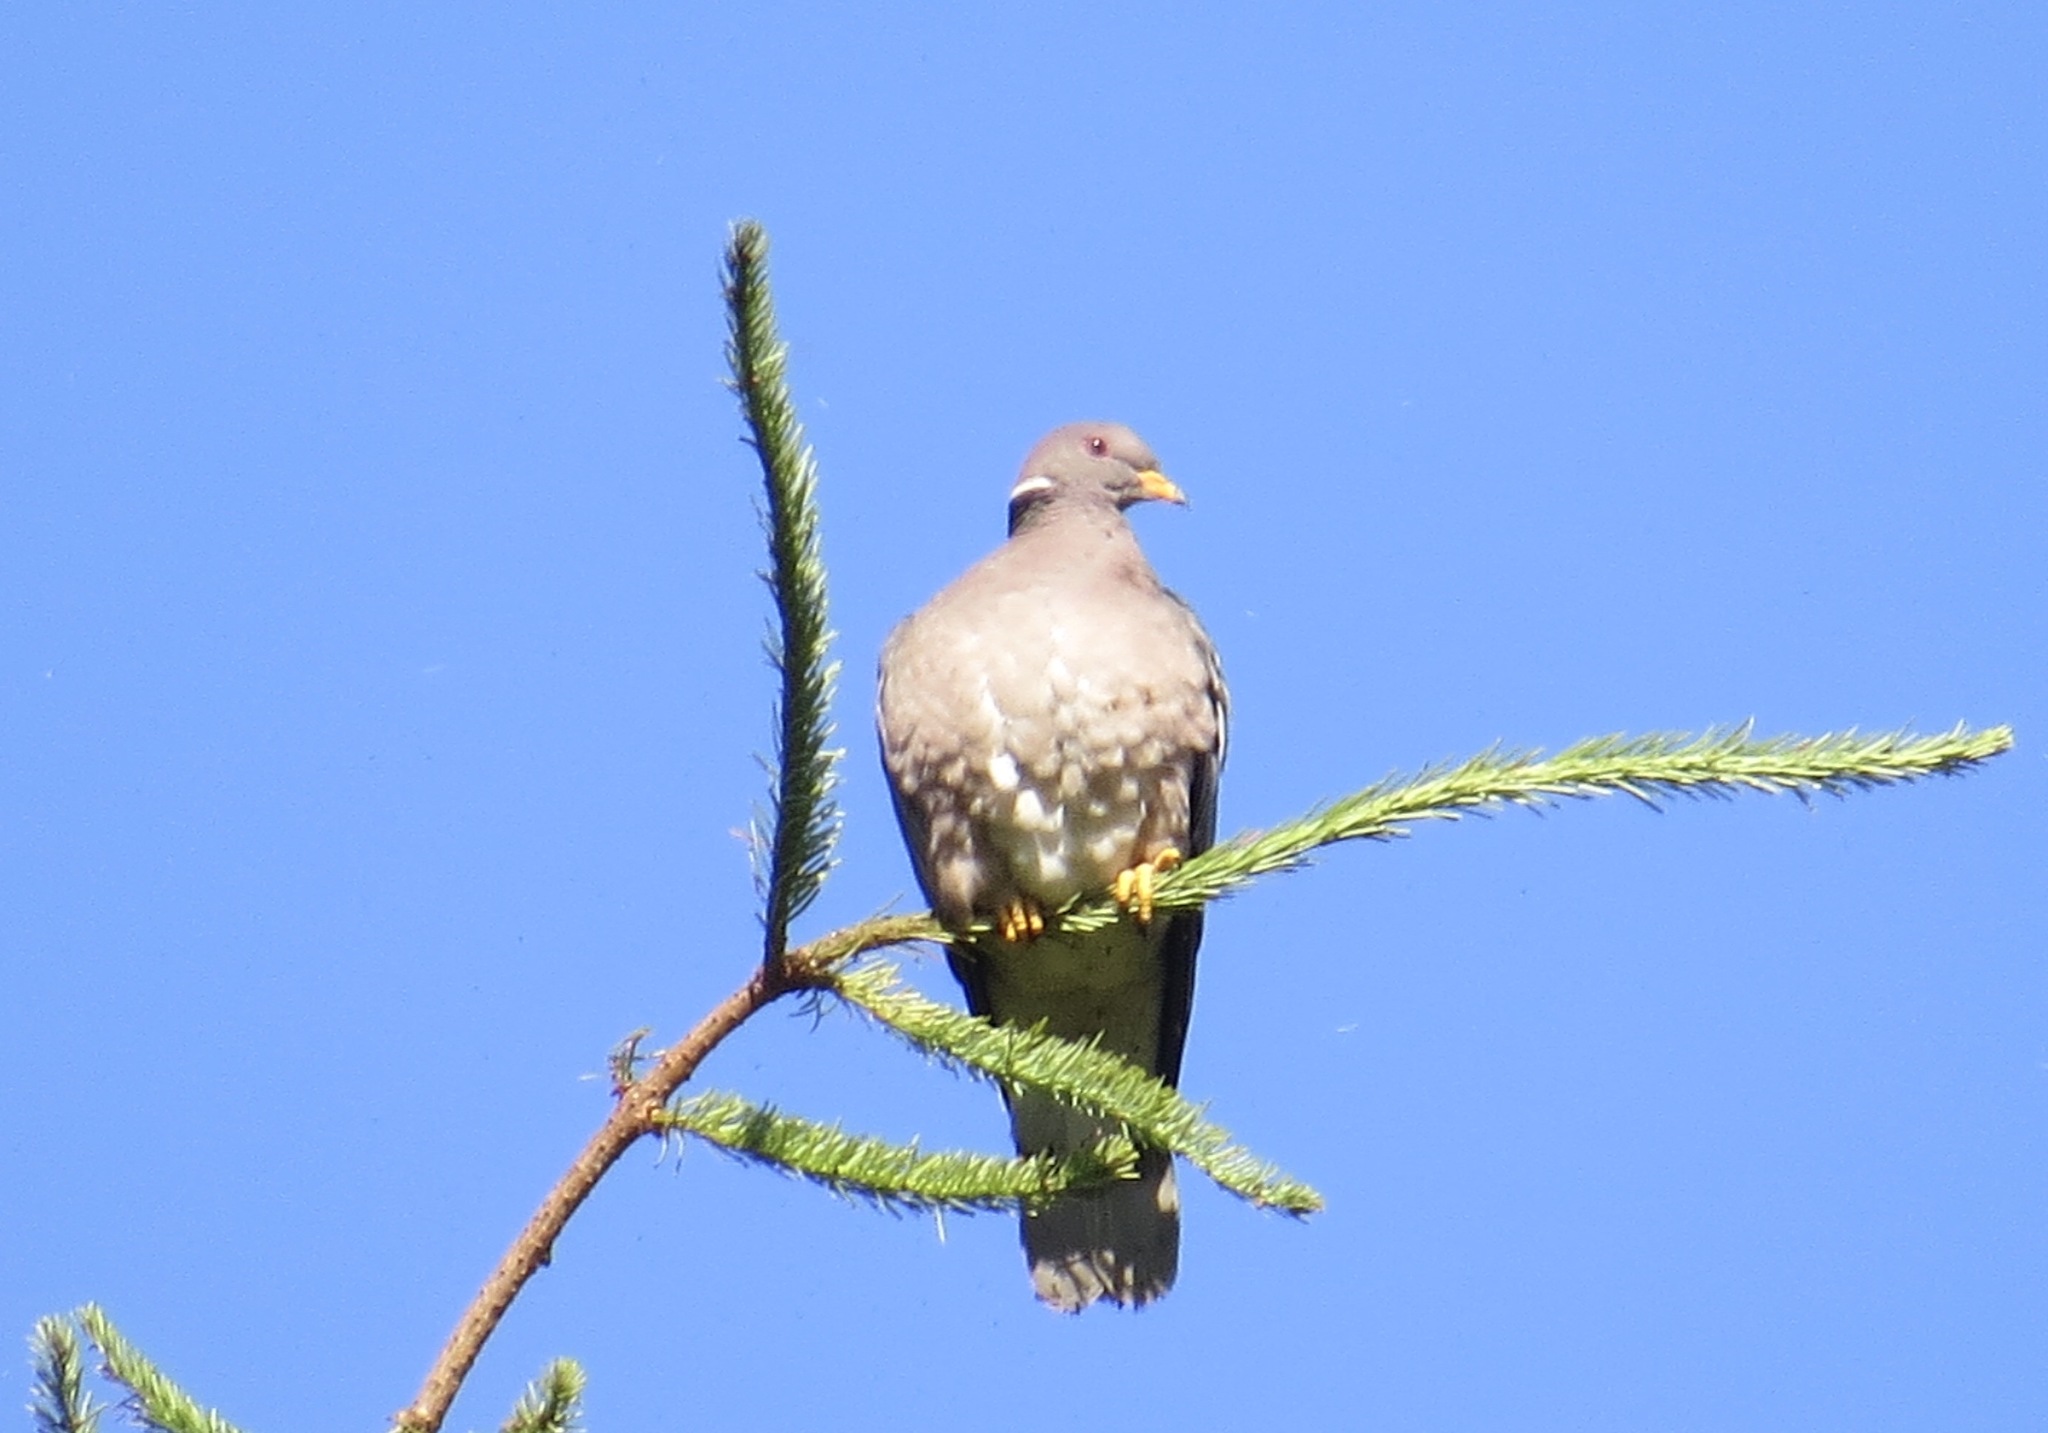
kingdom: Animalia
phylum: Chordata
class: Aves
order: Columbiformes
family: Columbidae
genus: Patagioenas
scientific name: Patagioenas fasciata
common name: Band-tailed pigeon
